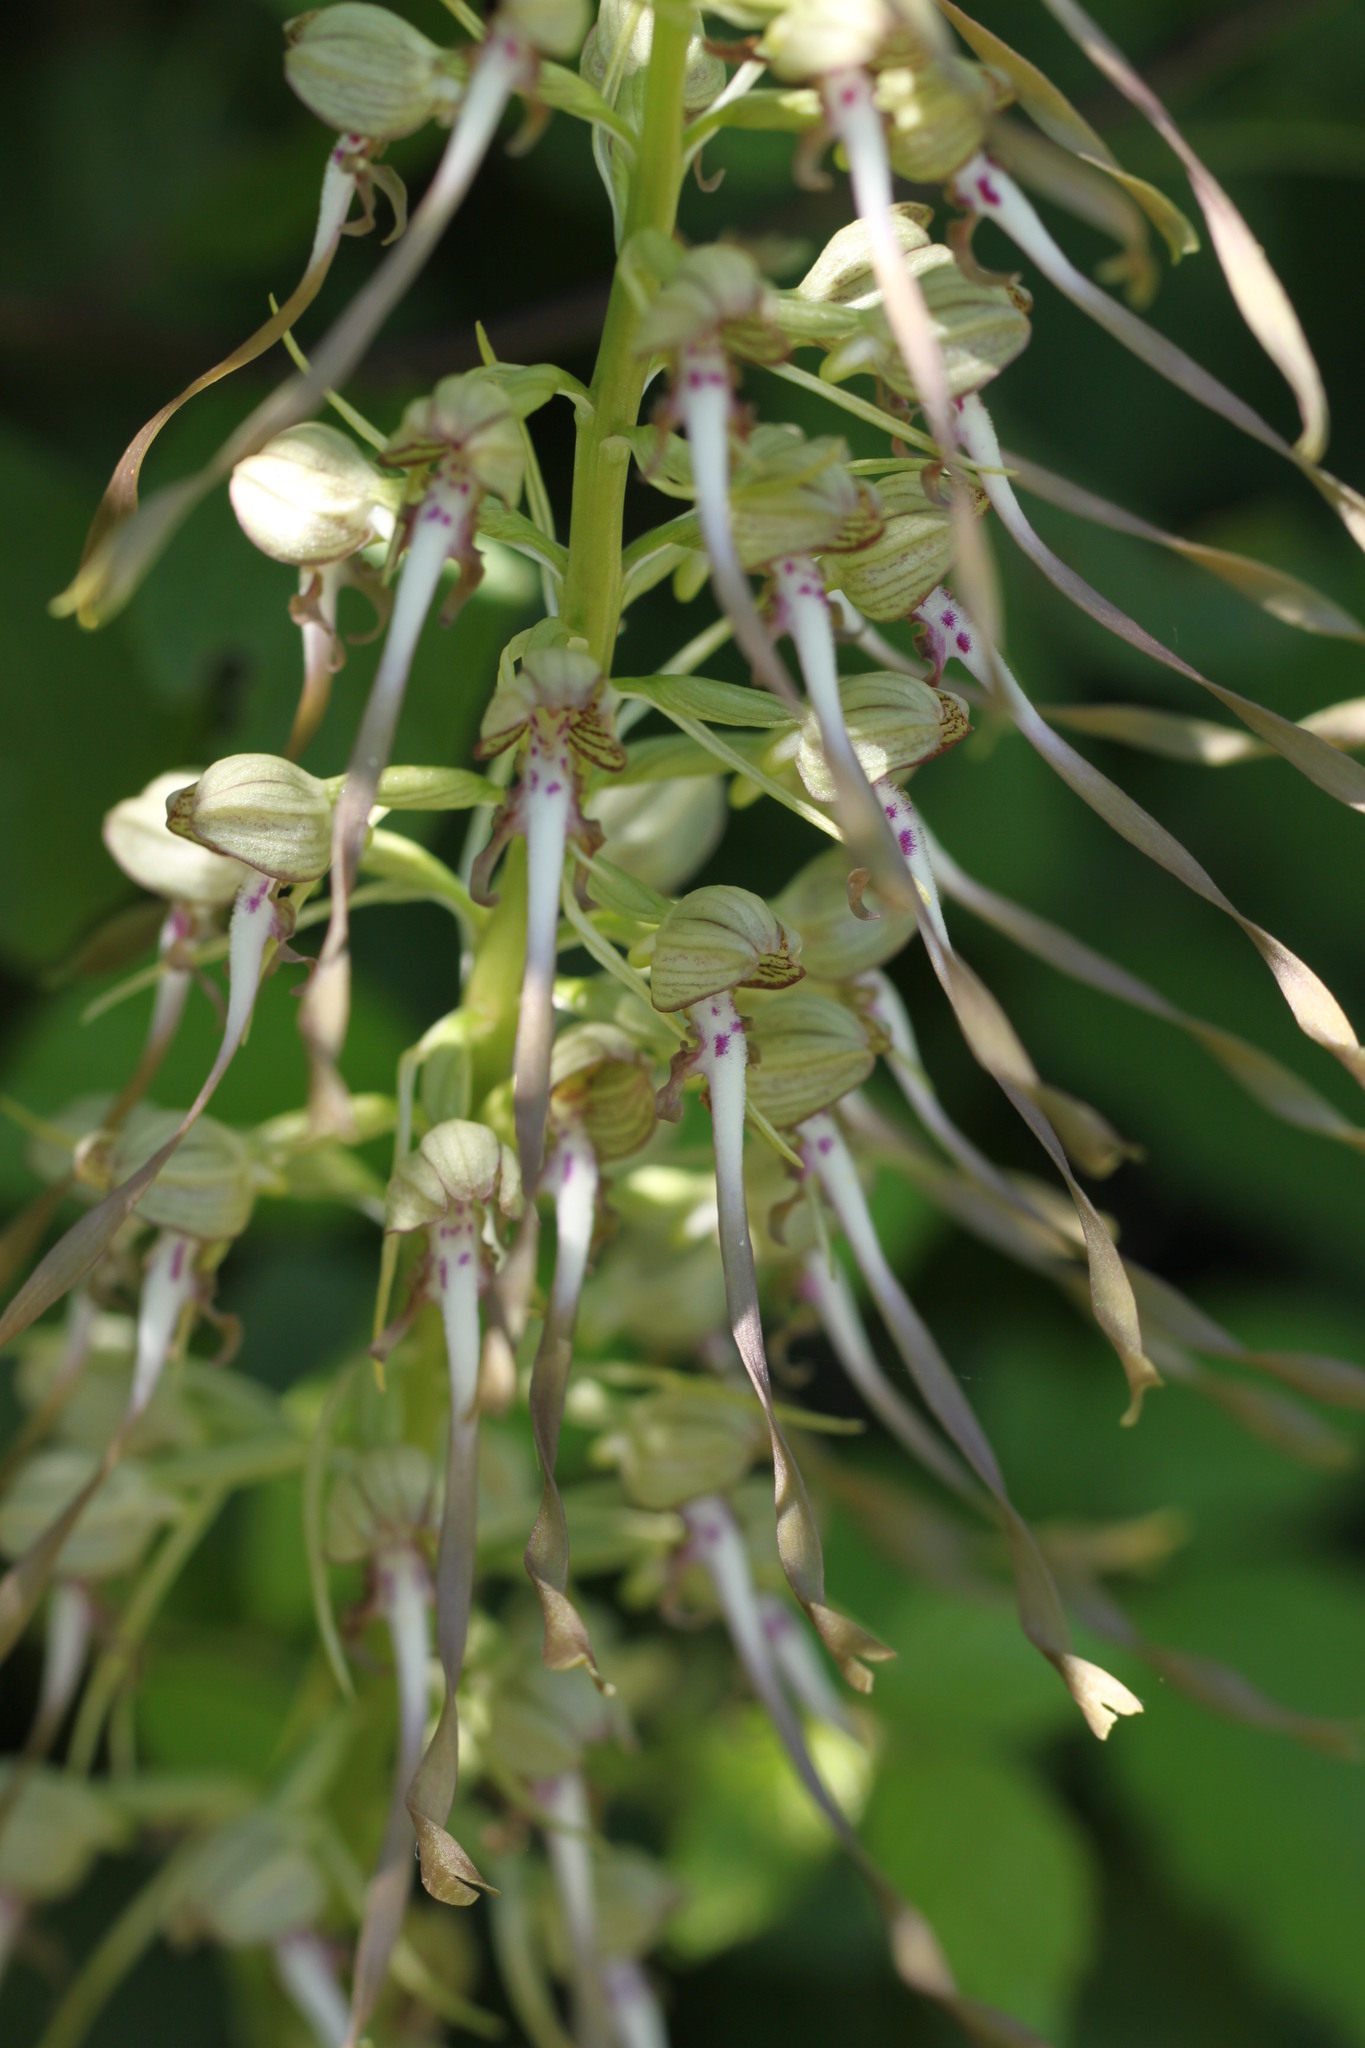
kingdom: Plantae
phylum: Tracheophyta
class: Liliopsida
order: Asparagales
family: Orchidaceae
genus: Himantoglossum
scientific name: Himantoglossum hircinum
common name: Lizard orchid
